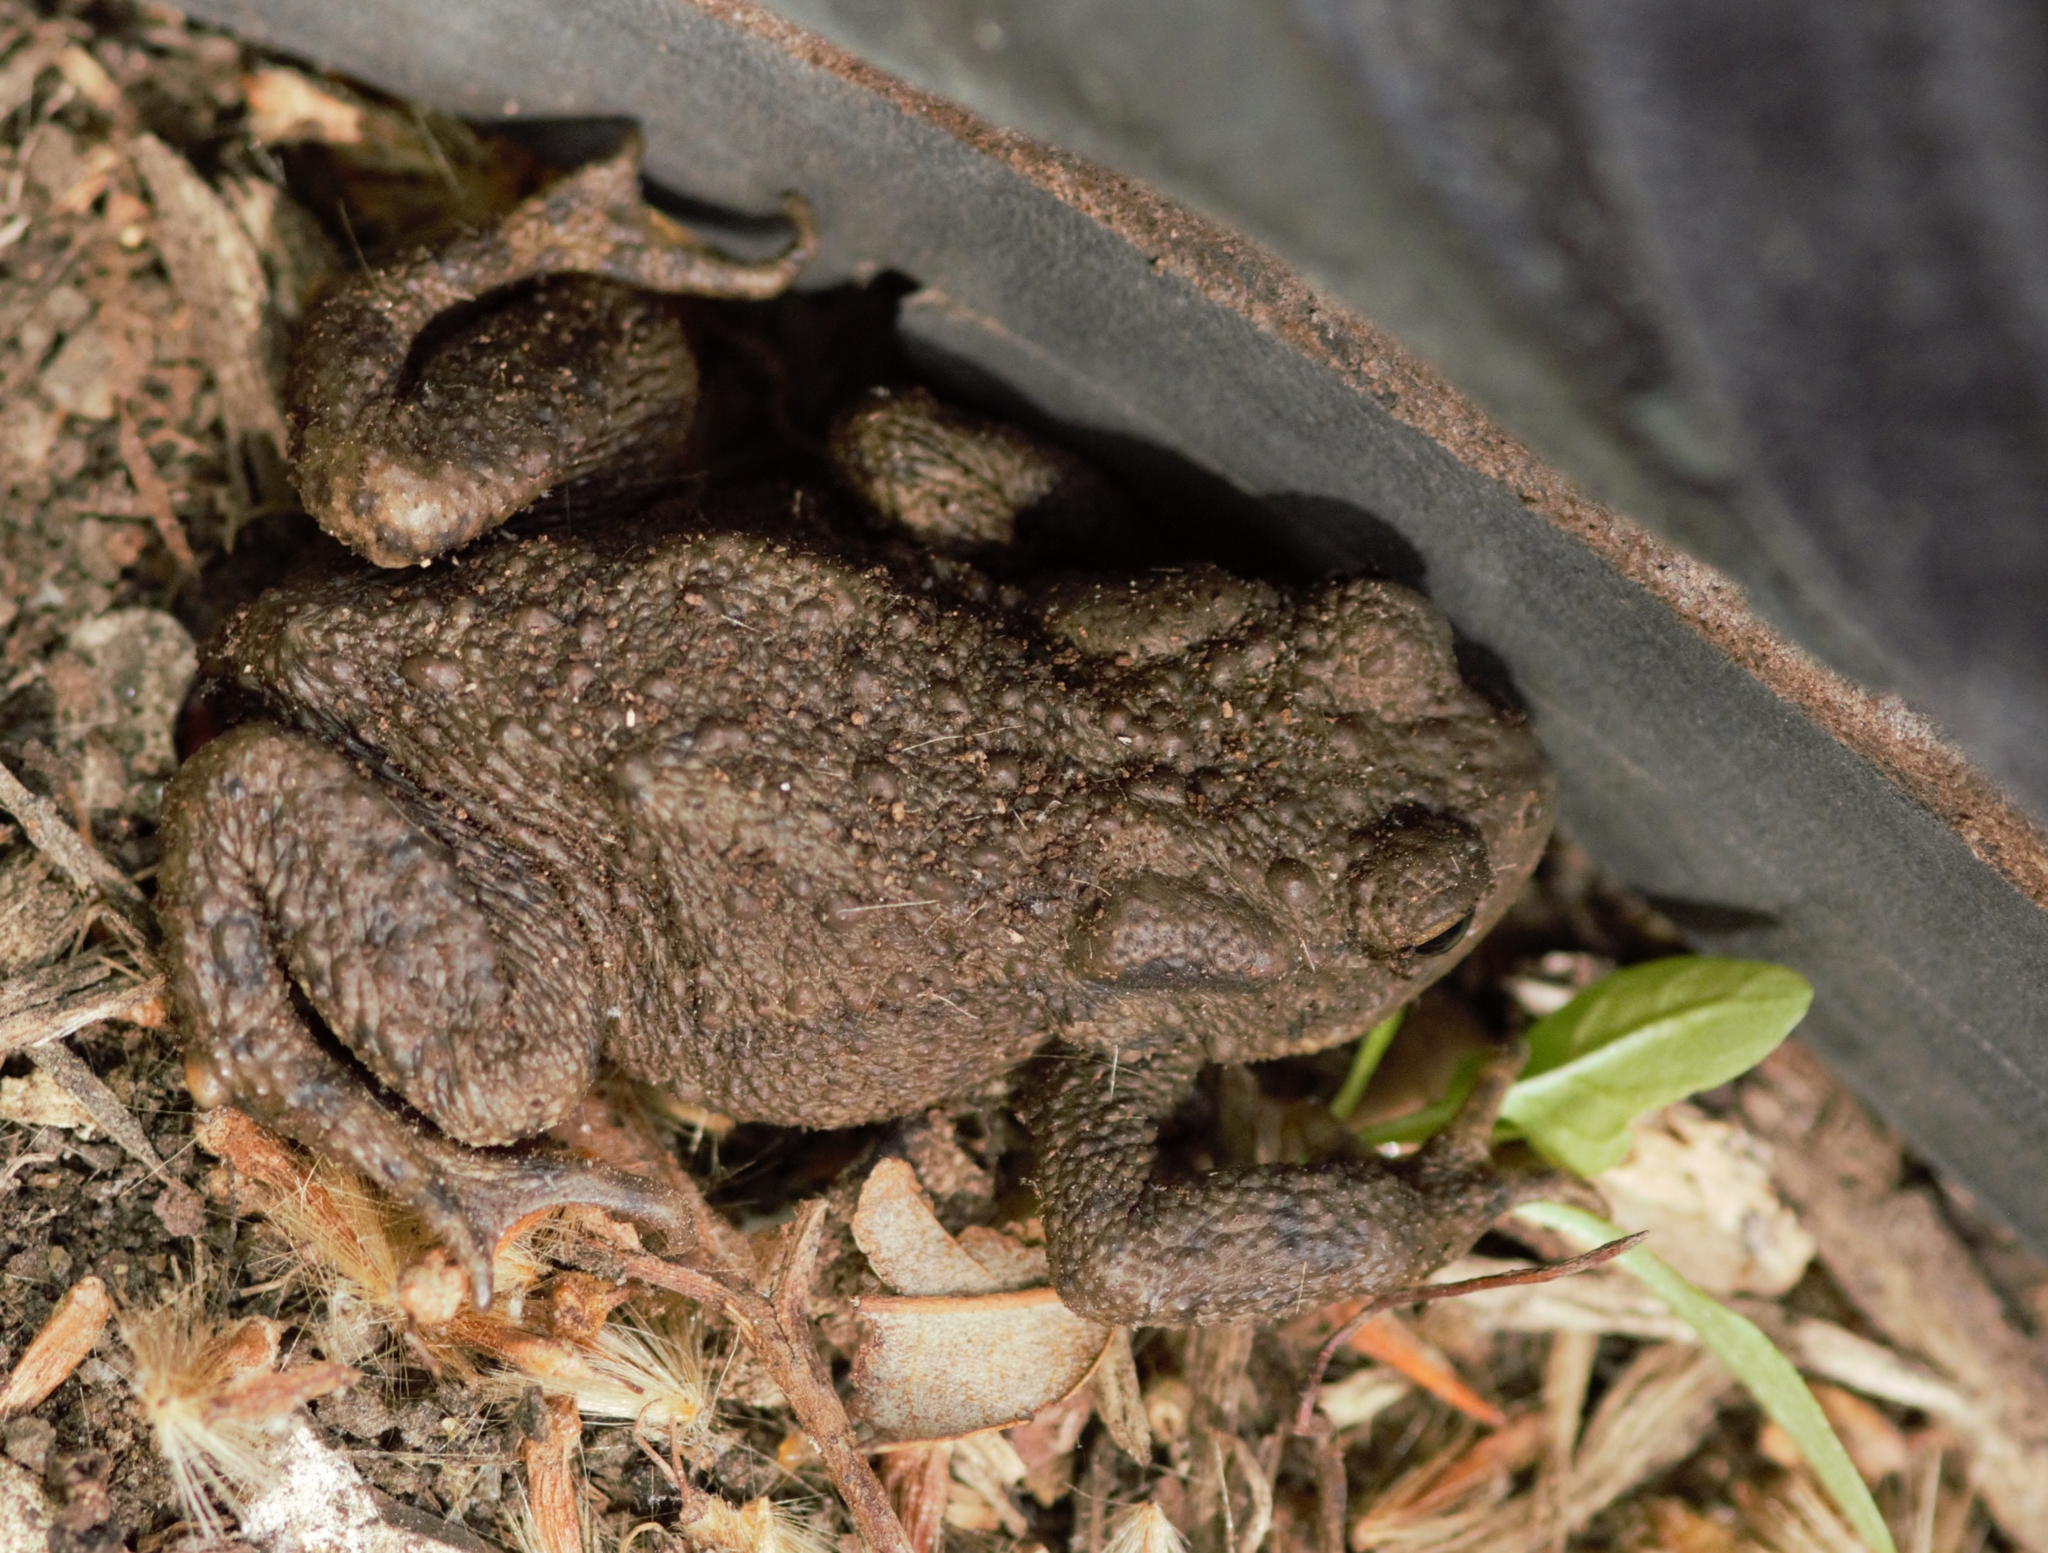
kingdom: Animalia
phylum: Chordata
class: Amphibia
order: Anura
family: Bufonidae
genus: Bufo
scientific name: Bufo bufo
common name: Common toad
